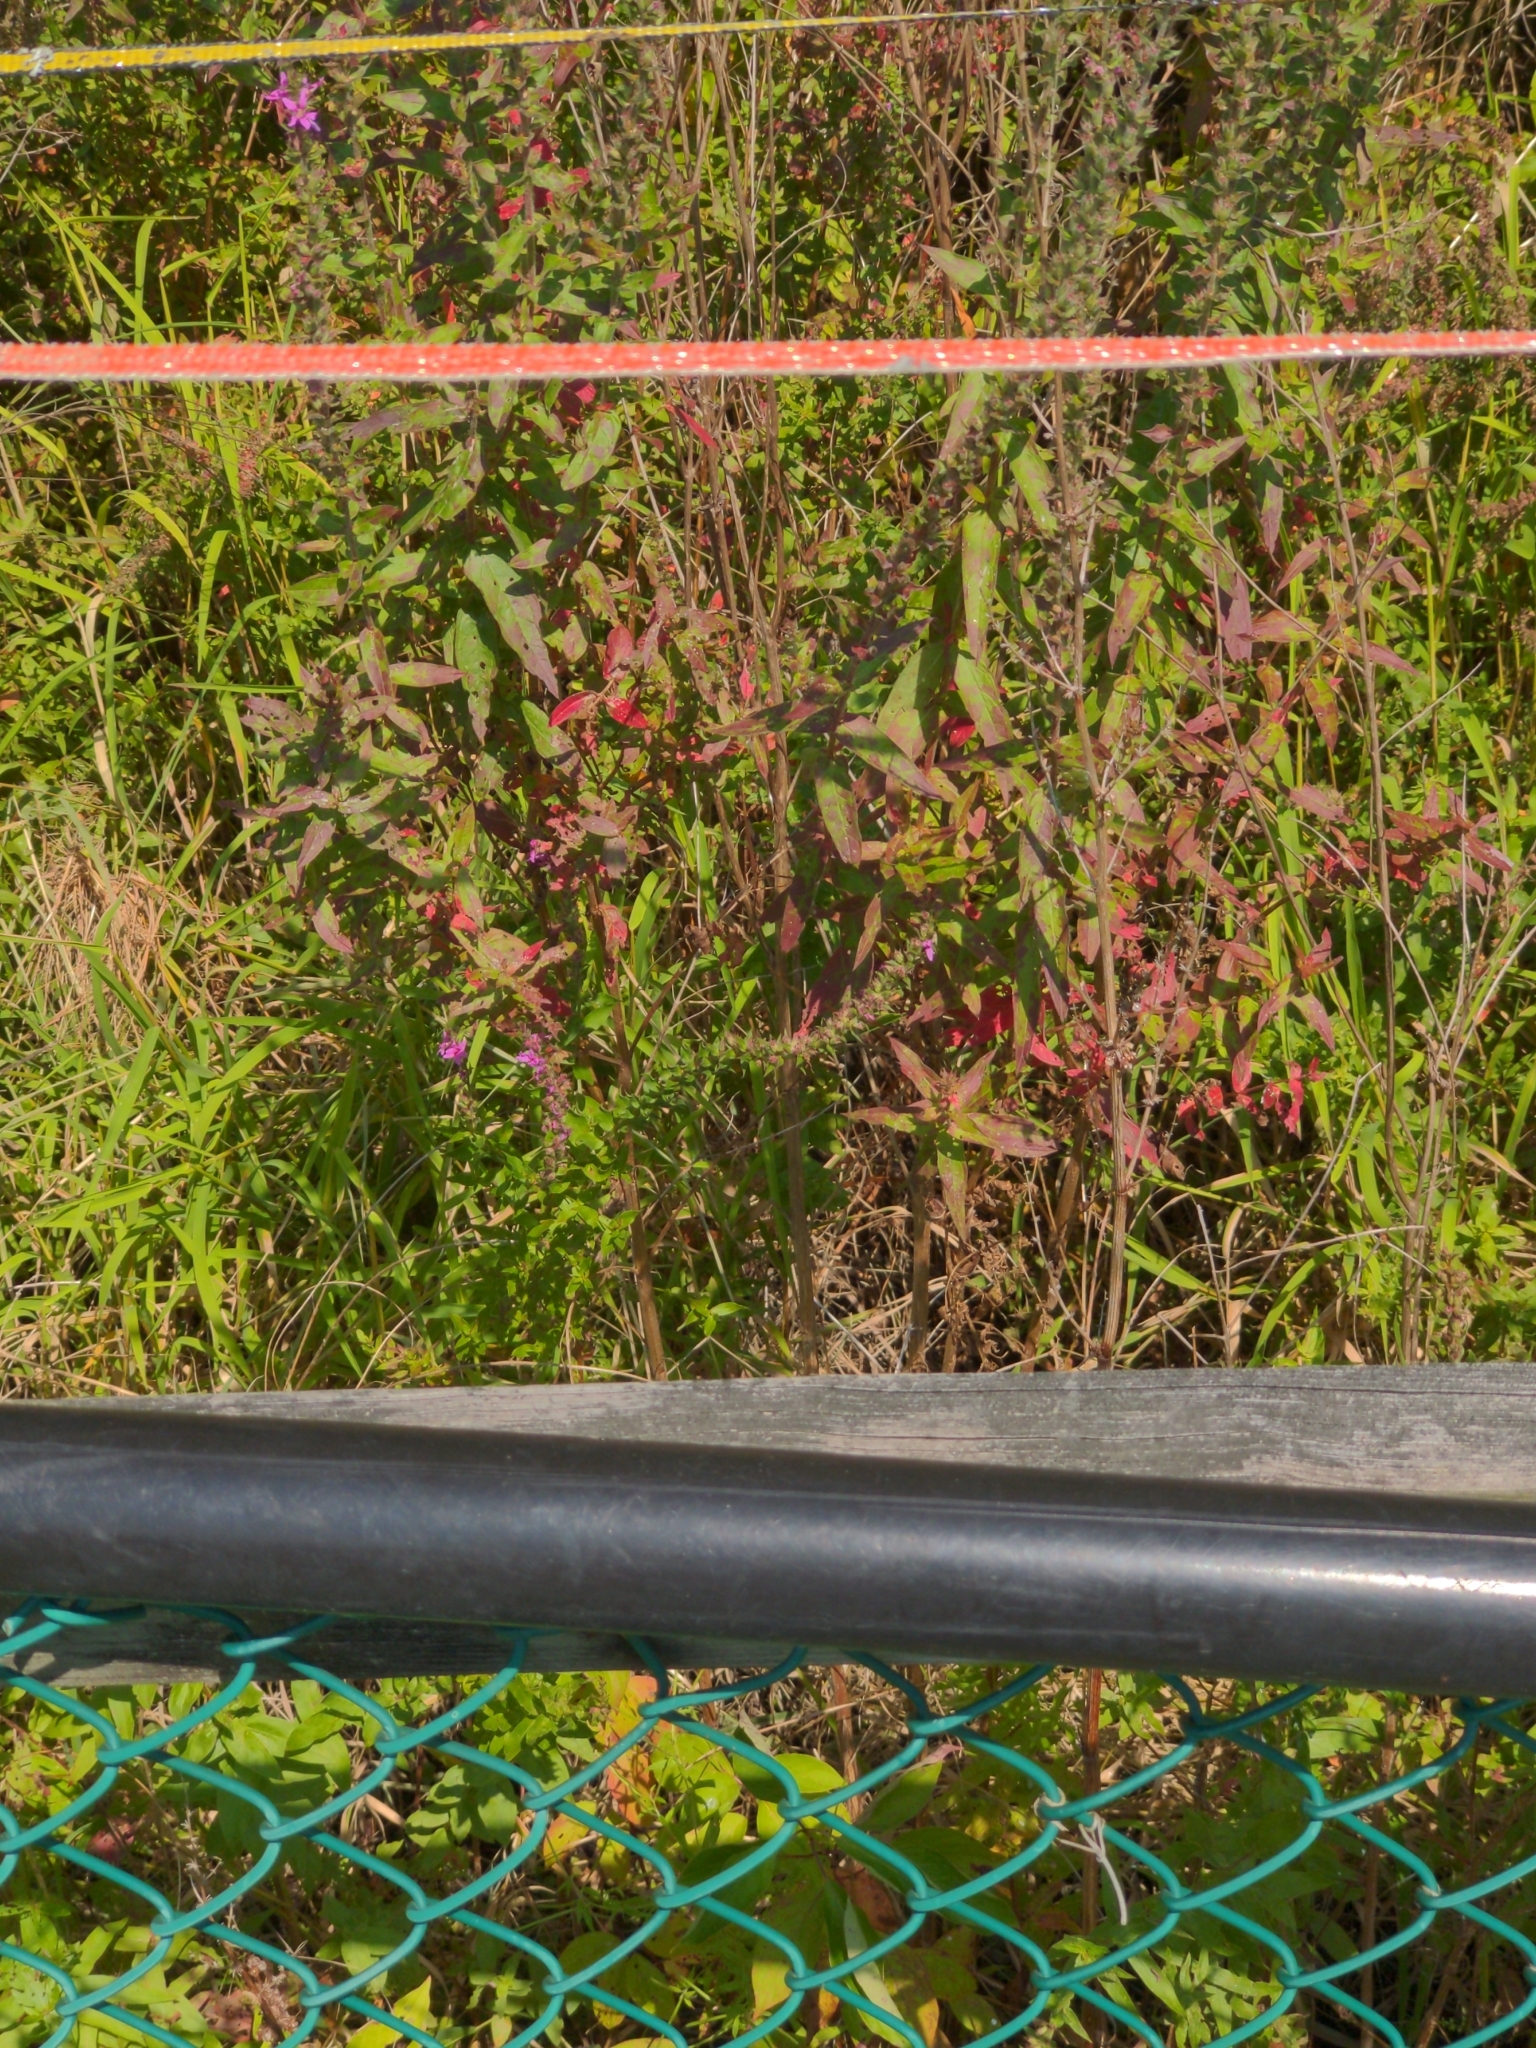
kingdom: Plantae
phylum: Tracheophyta
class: Magnoliopsida
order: Myrtales
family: Lythraceae
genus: Lythrum
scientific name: Lythrum salicaria
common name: Purple loosestrife
